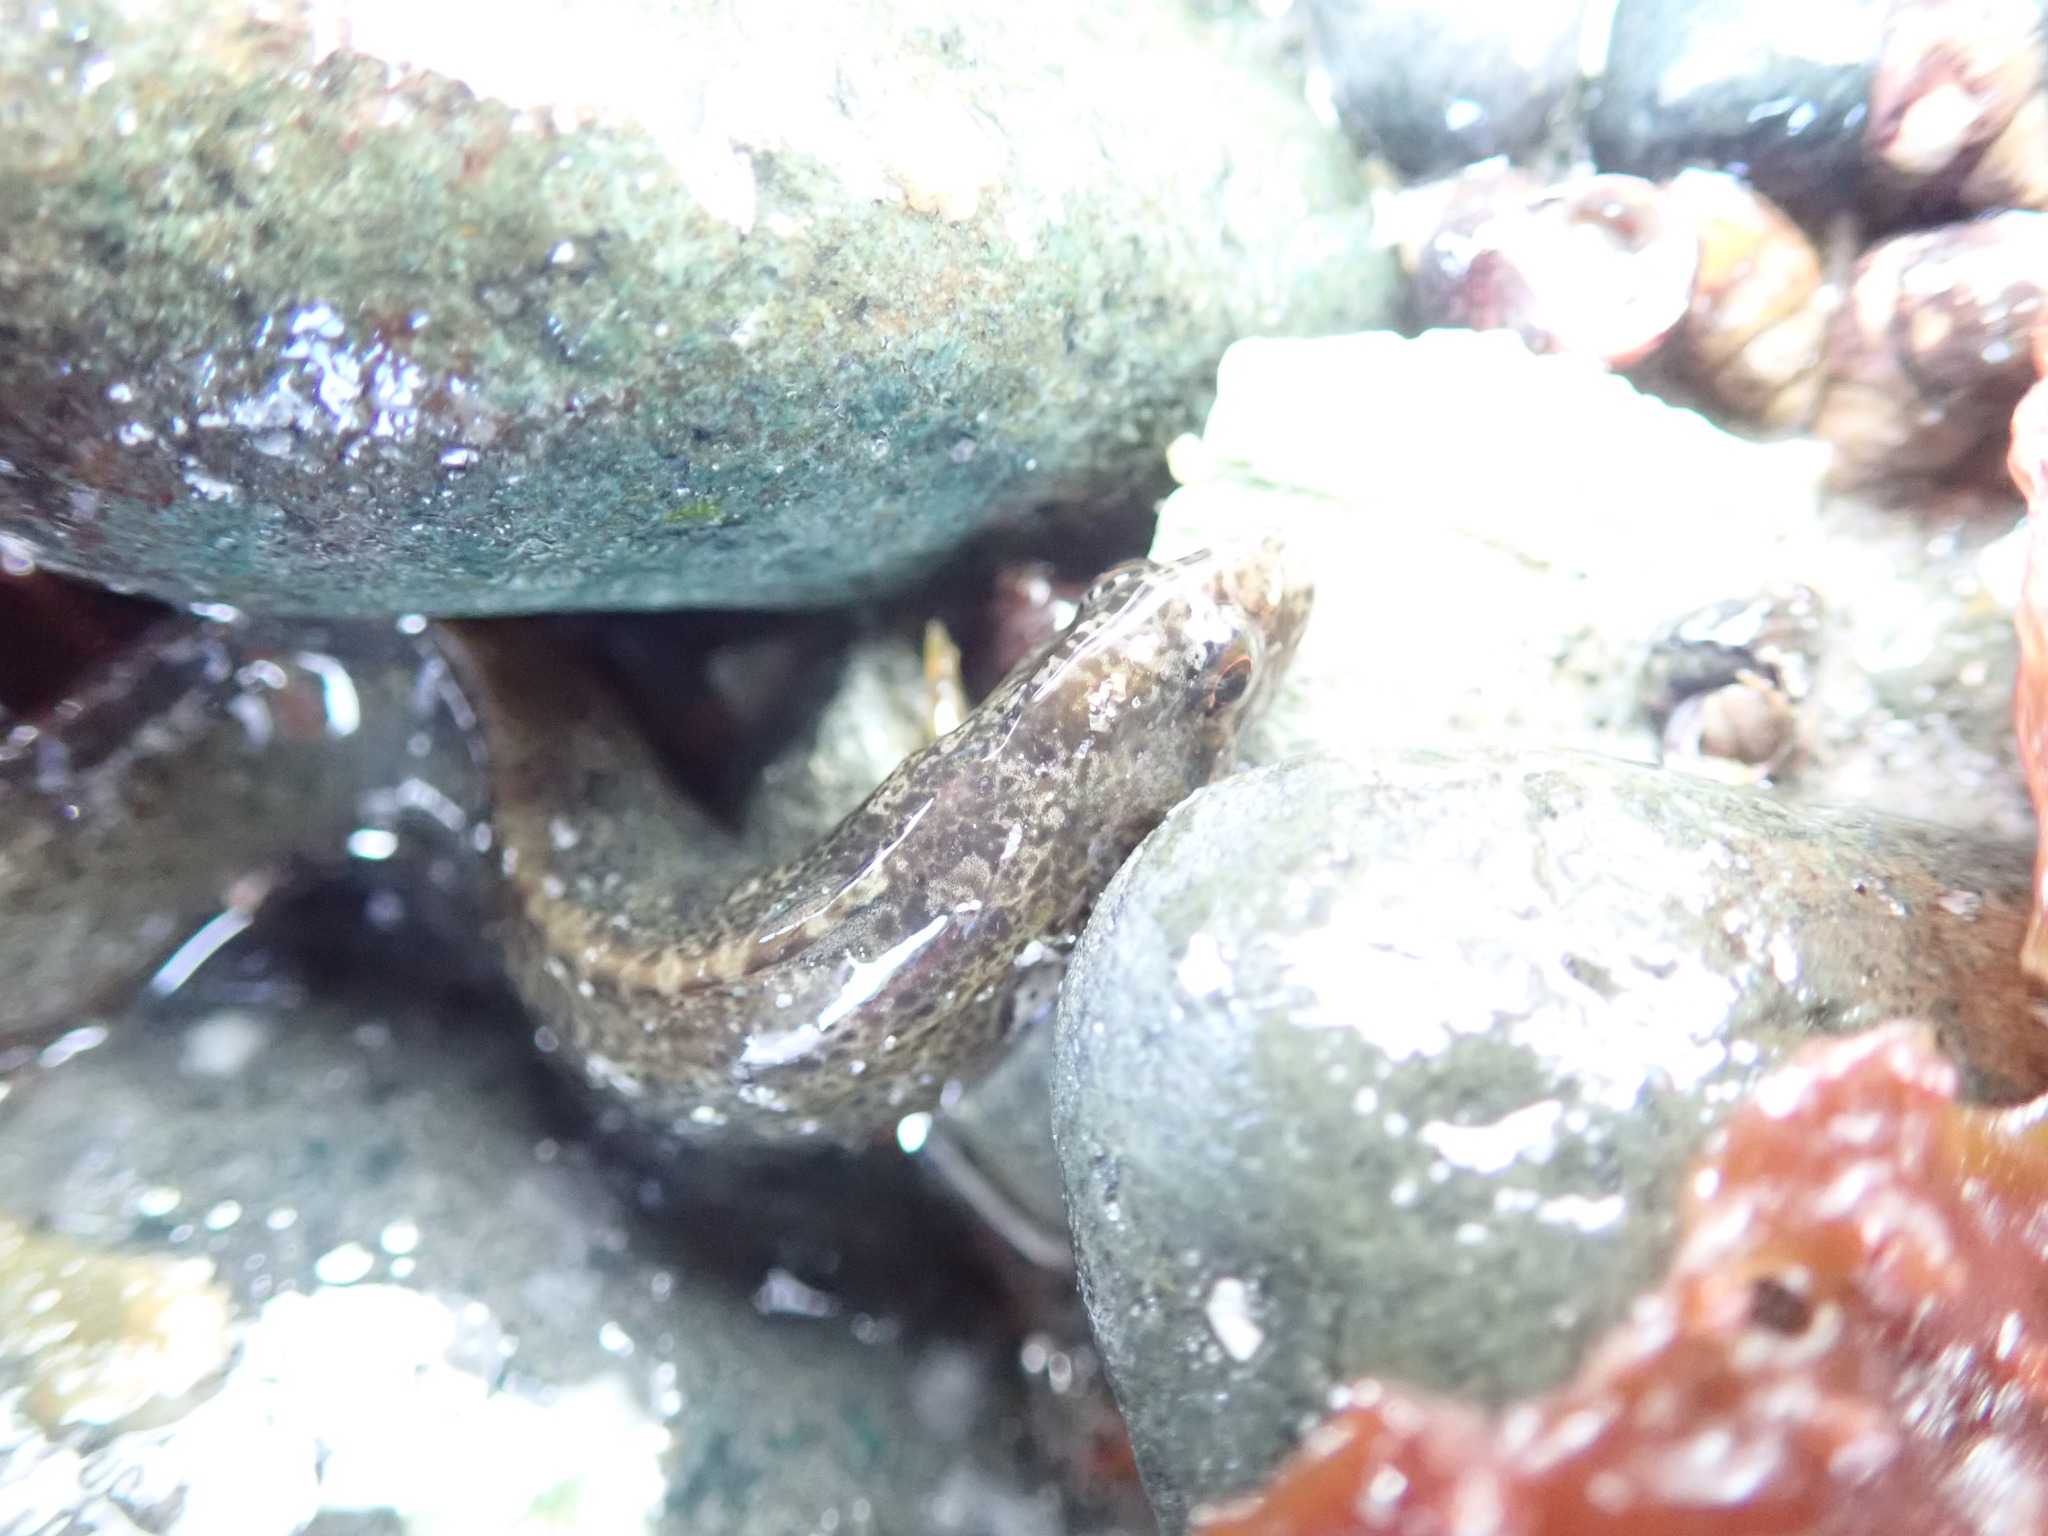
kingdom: Animalia
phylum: Chordata
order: Perciformes
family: Stichaeidae
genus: Anoplarchus
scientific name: Anoplarchus purpurescens
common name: High cockscomb
